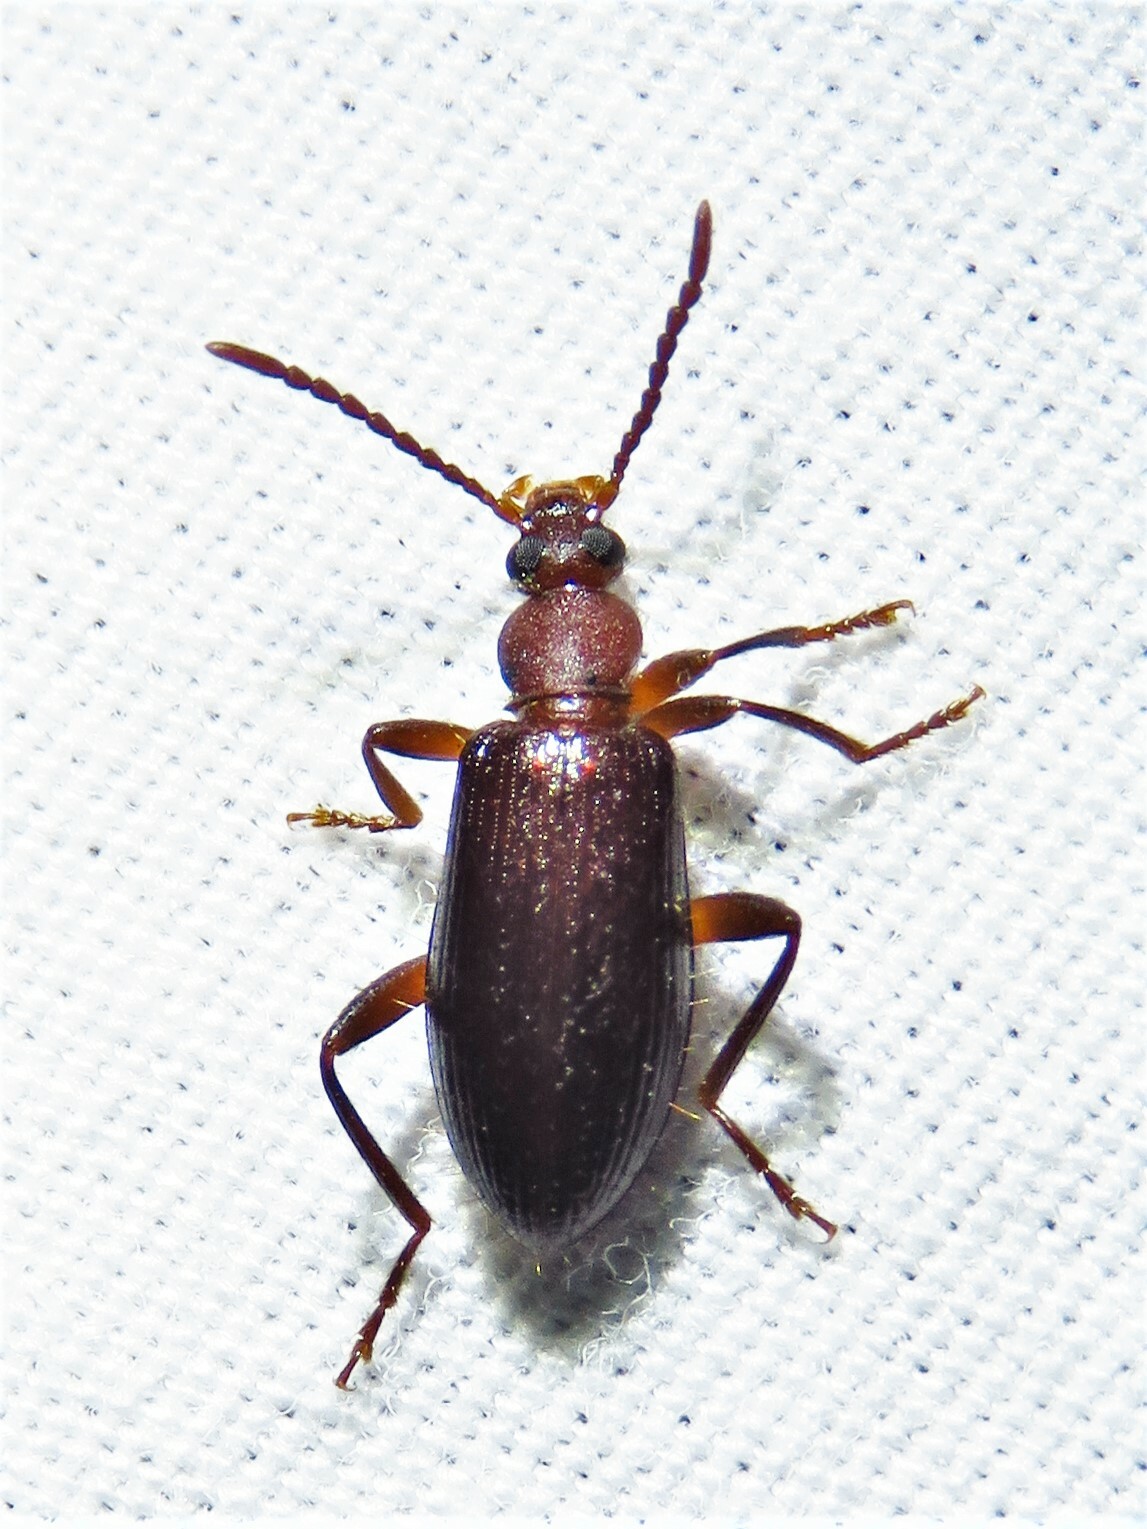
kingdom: Animalia
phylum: Arthropoda
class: Insecta
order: Coleoptera
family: Tenebrionidae
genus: Statira
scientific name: Statira hirsuta
